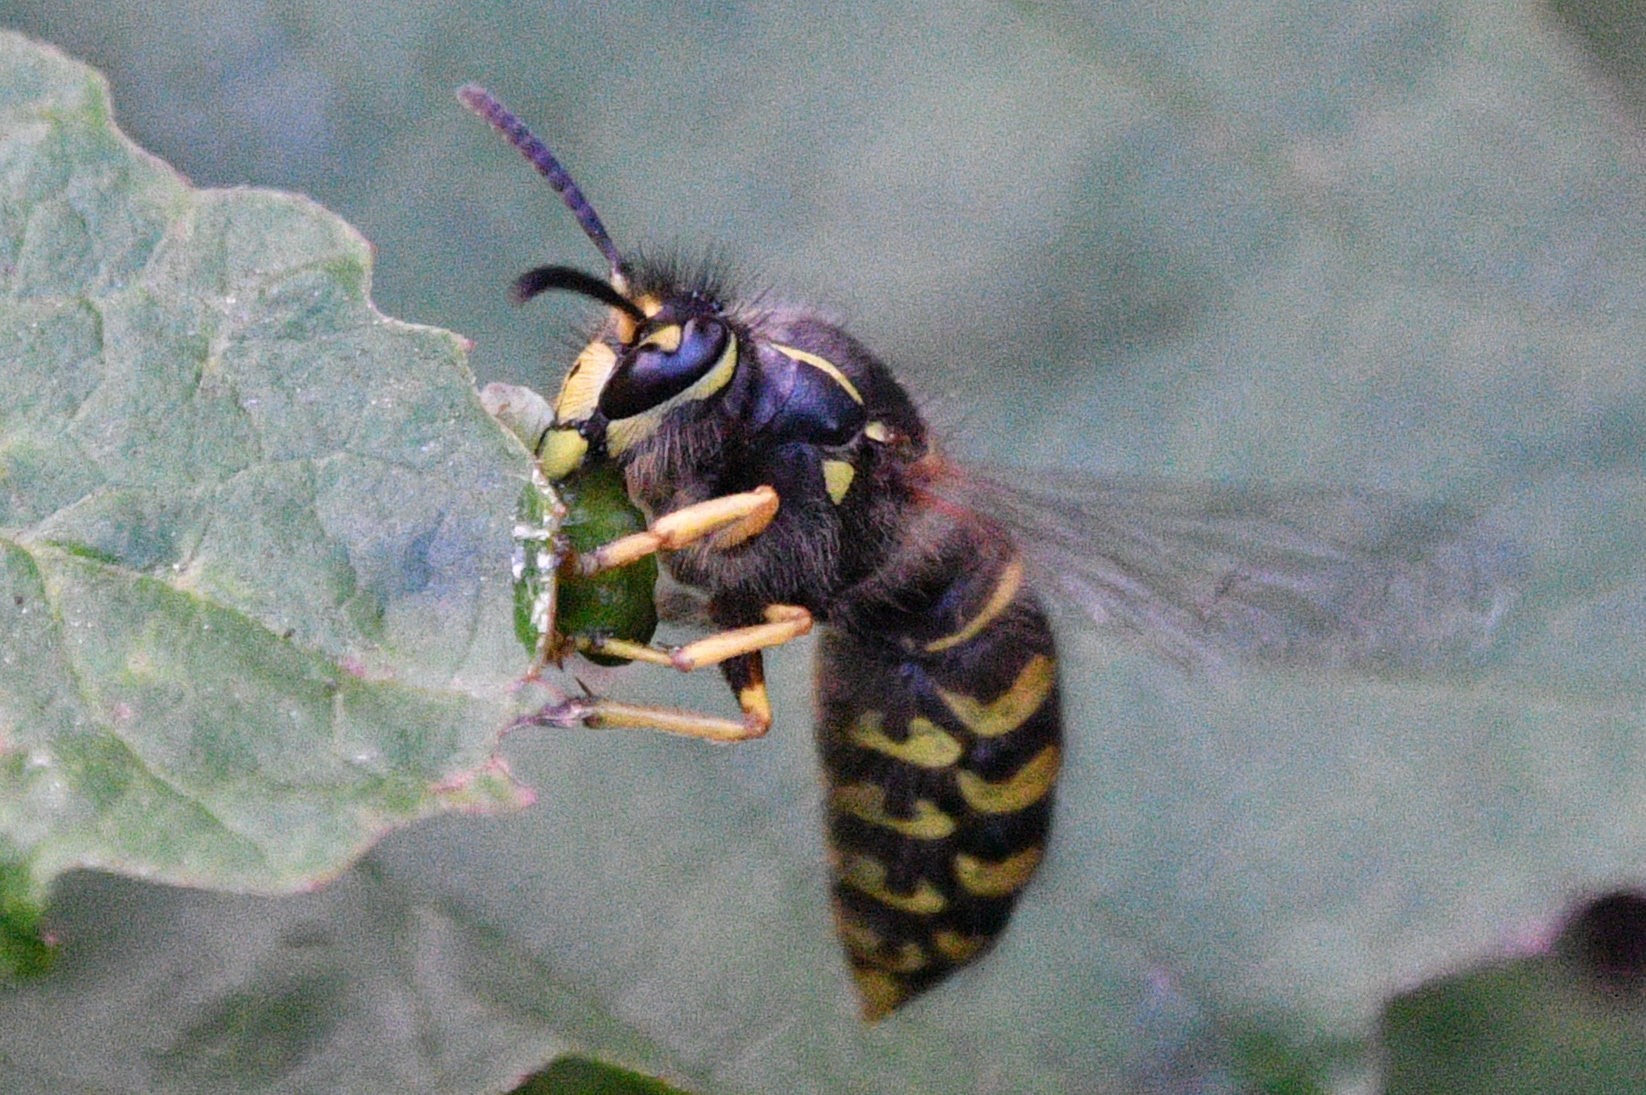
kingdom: Animalia
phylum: Arthropoda
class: Insecta
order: Hymenoptera
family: Vespidae
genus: Dolichovespula
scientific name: Dolichovespula arenaria
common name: Aerial yellowjacket
